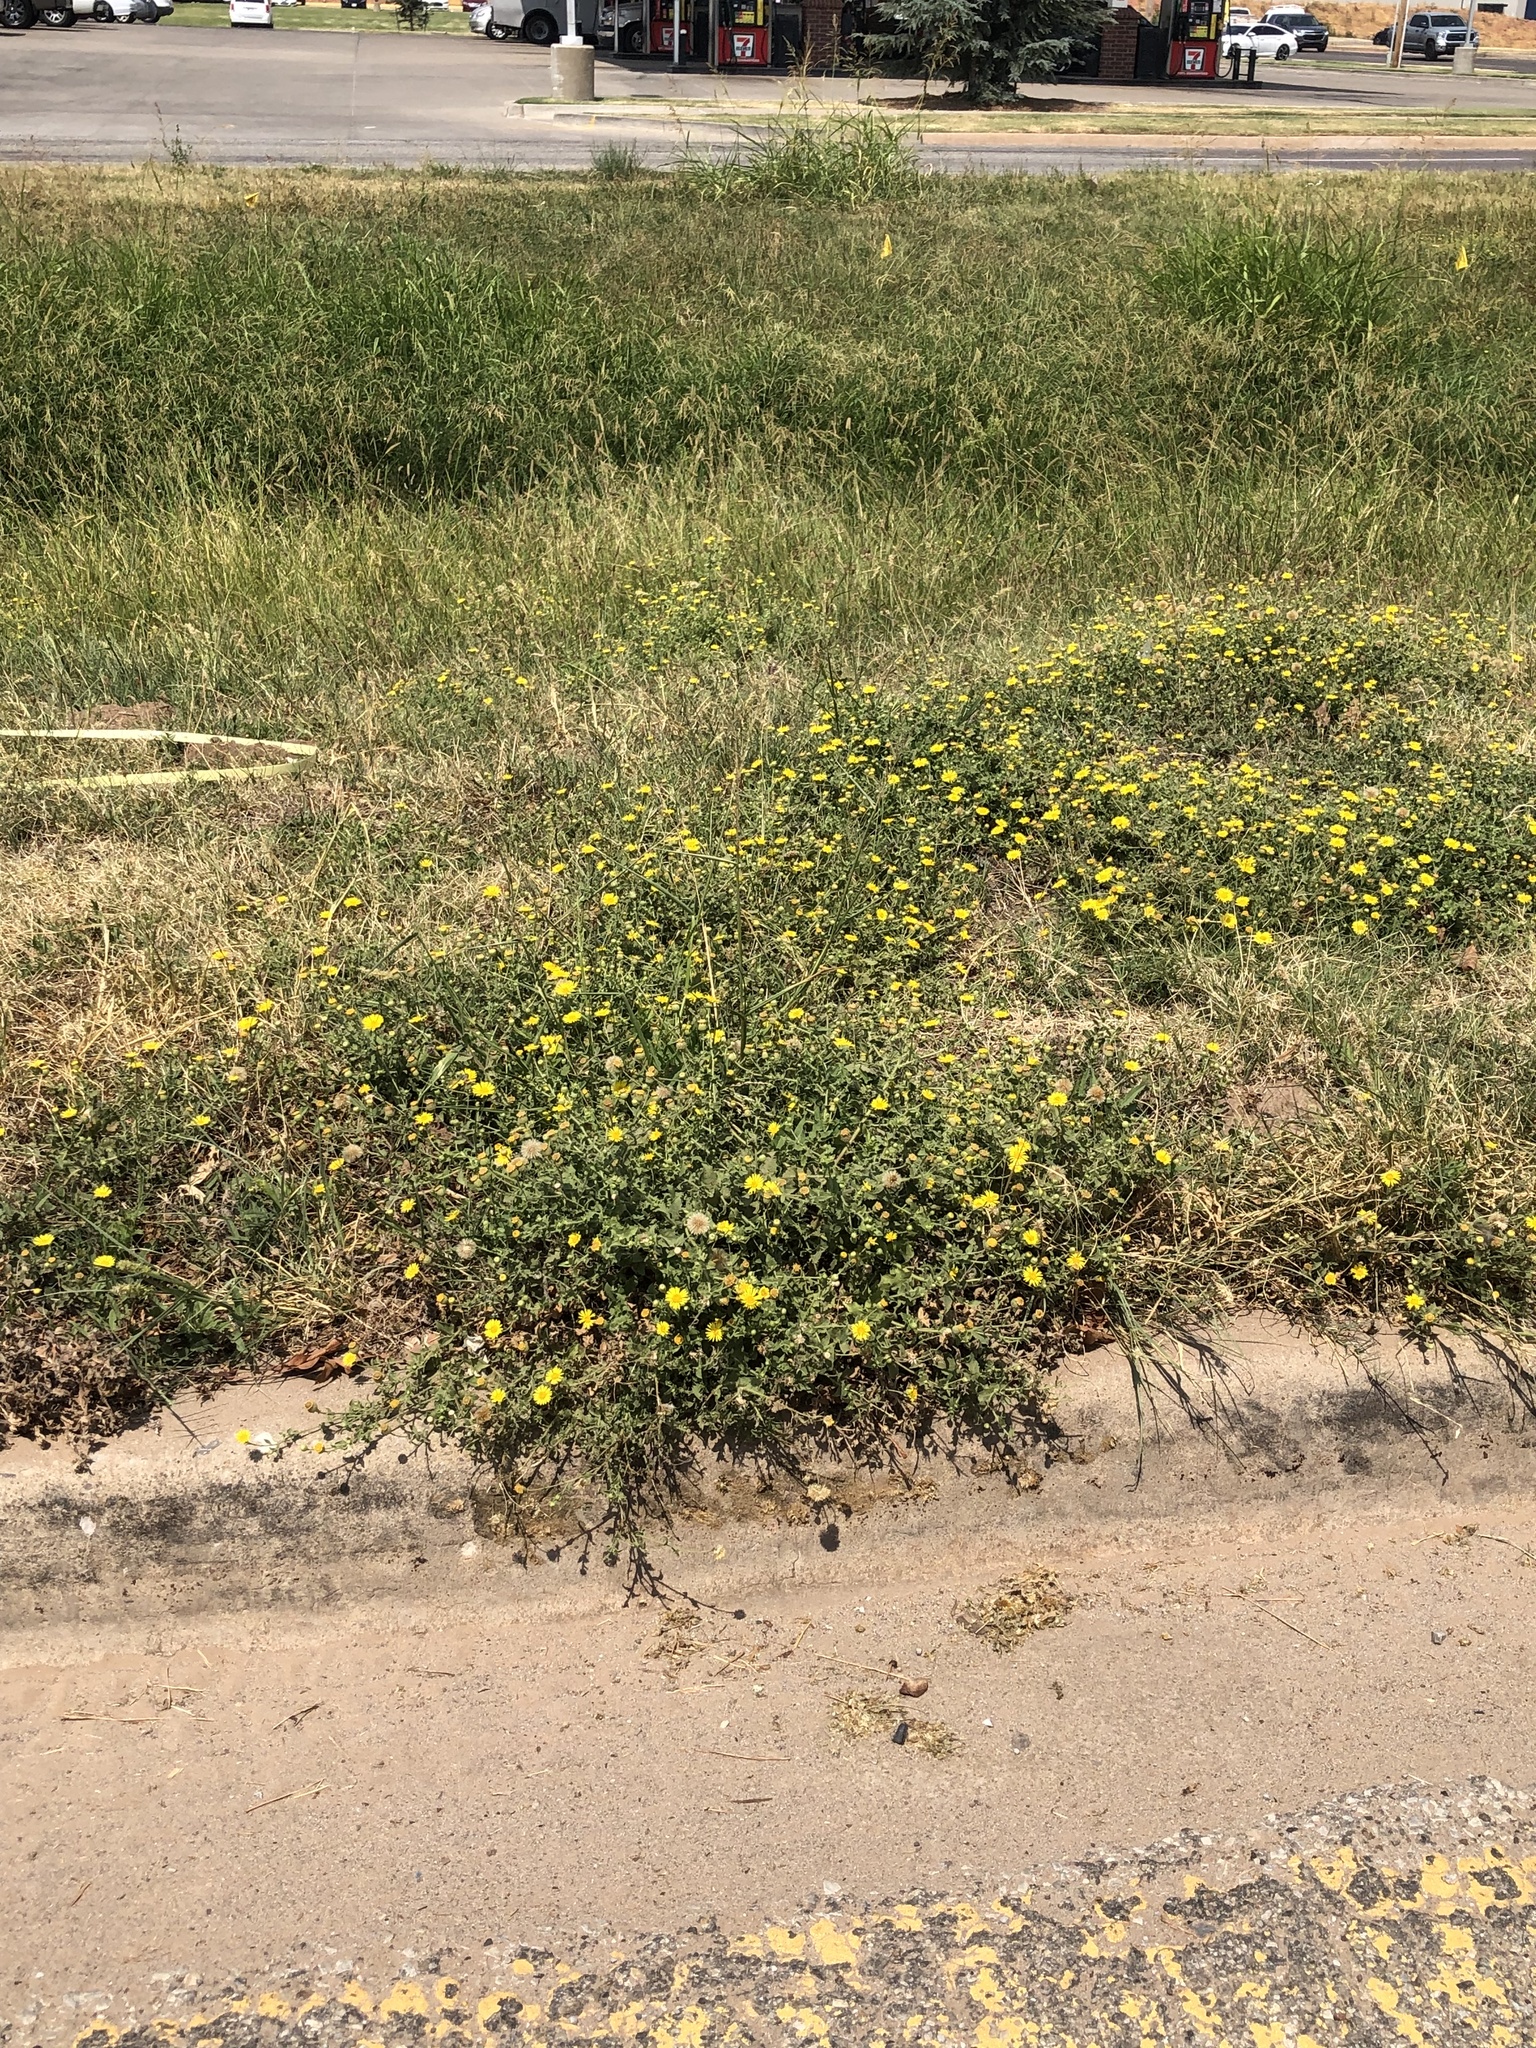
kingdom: Plantae
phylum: Tracheophyta
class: Magnoliopsida
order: Asterales
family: Asteraceae
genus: Heterotheca
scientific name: Heterotheca subaxillaris
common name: Camphorweed
